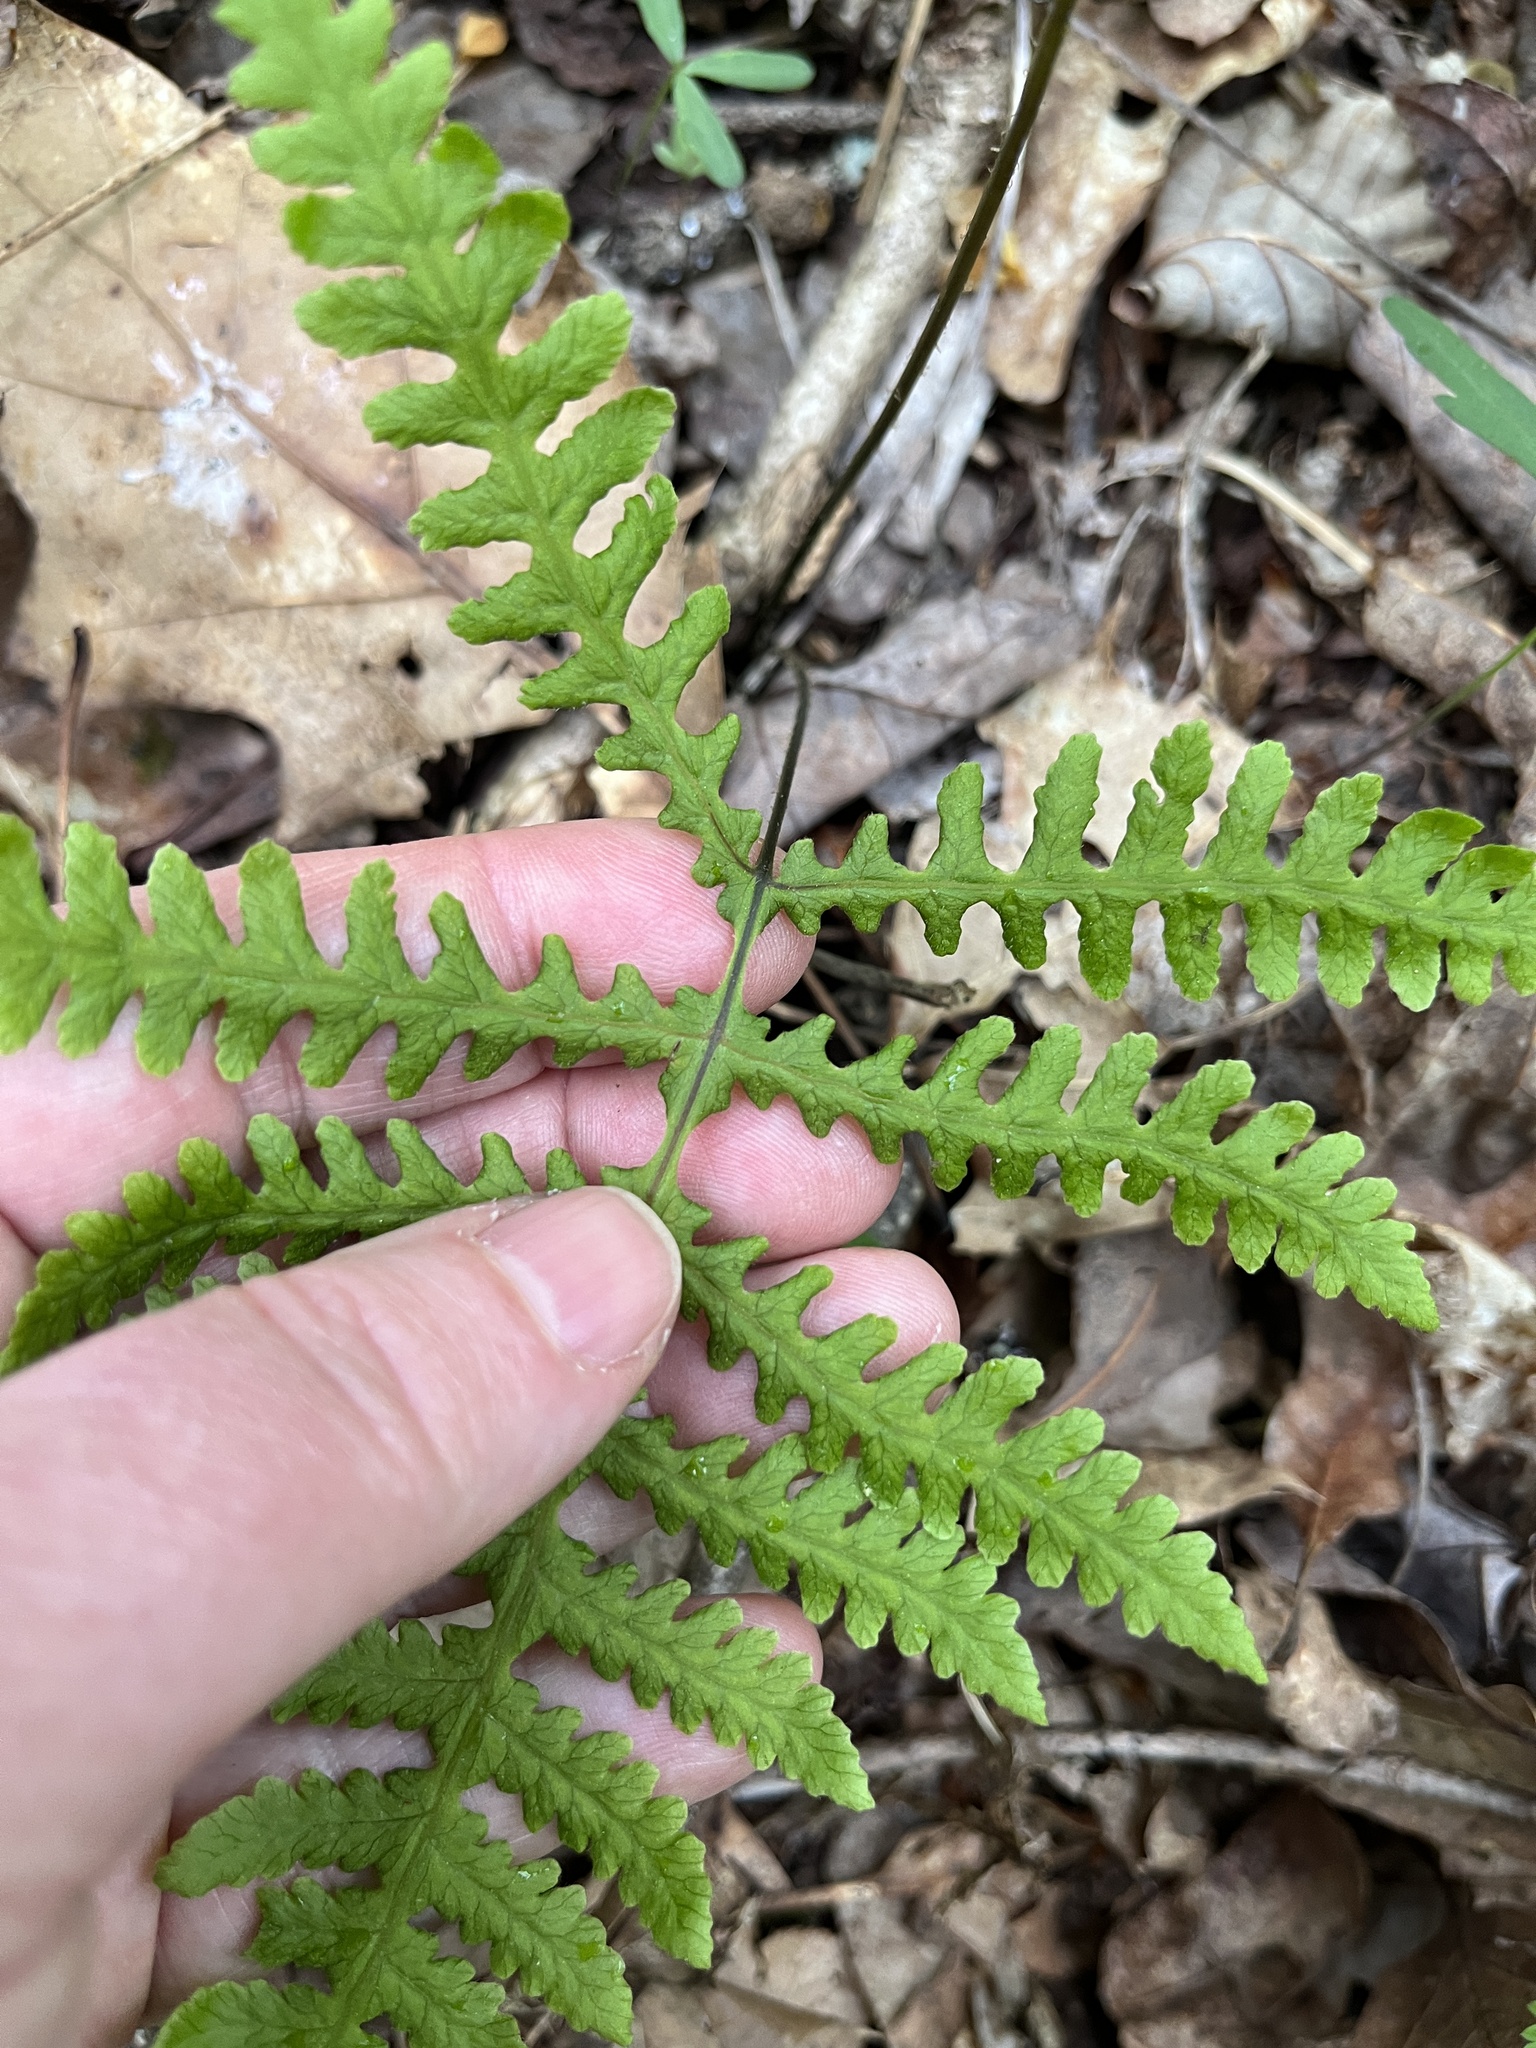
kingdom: Plantae
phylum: Tracheophyta
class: Polypodiopsida
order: Polypodiales
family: Thelypteridaceae
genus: Phegopteris
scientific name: Phegopteris hexagonoptera
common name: Broad beech fern
